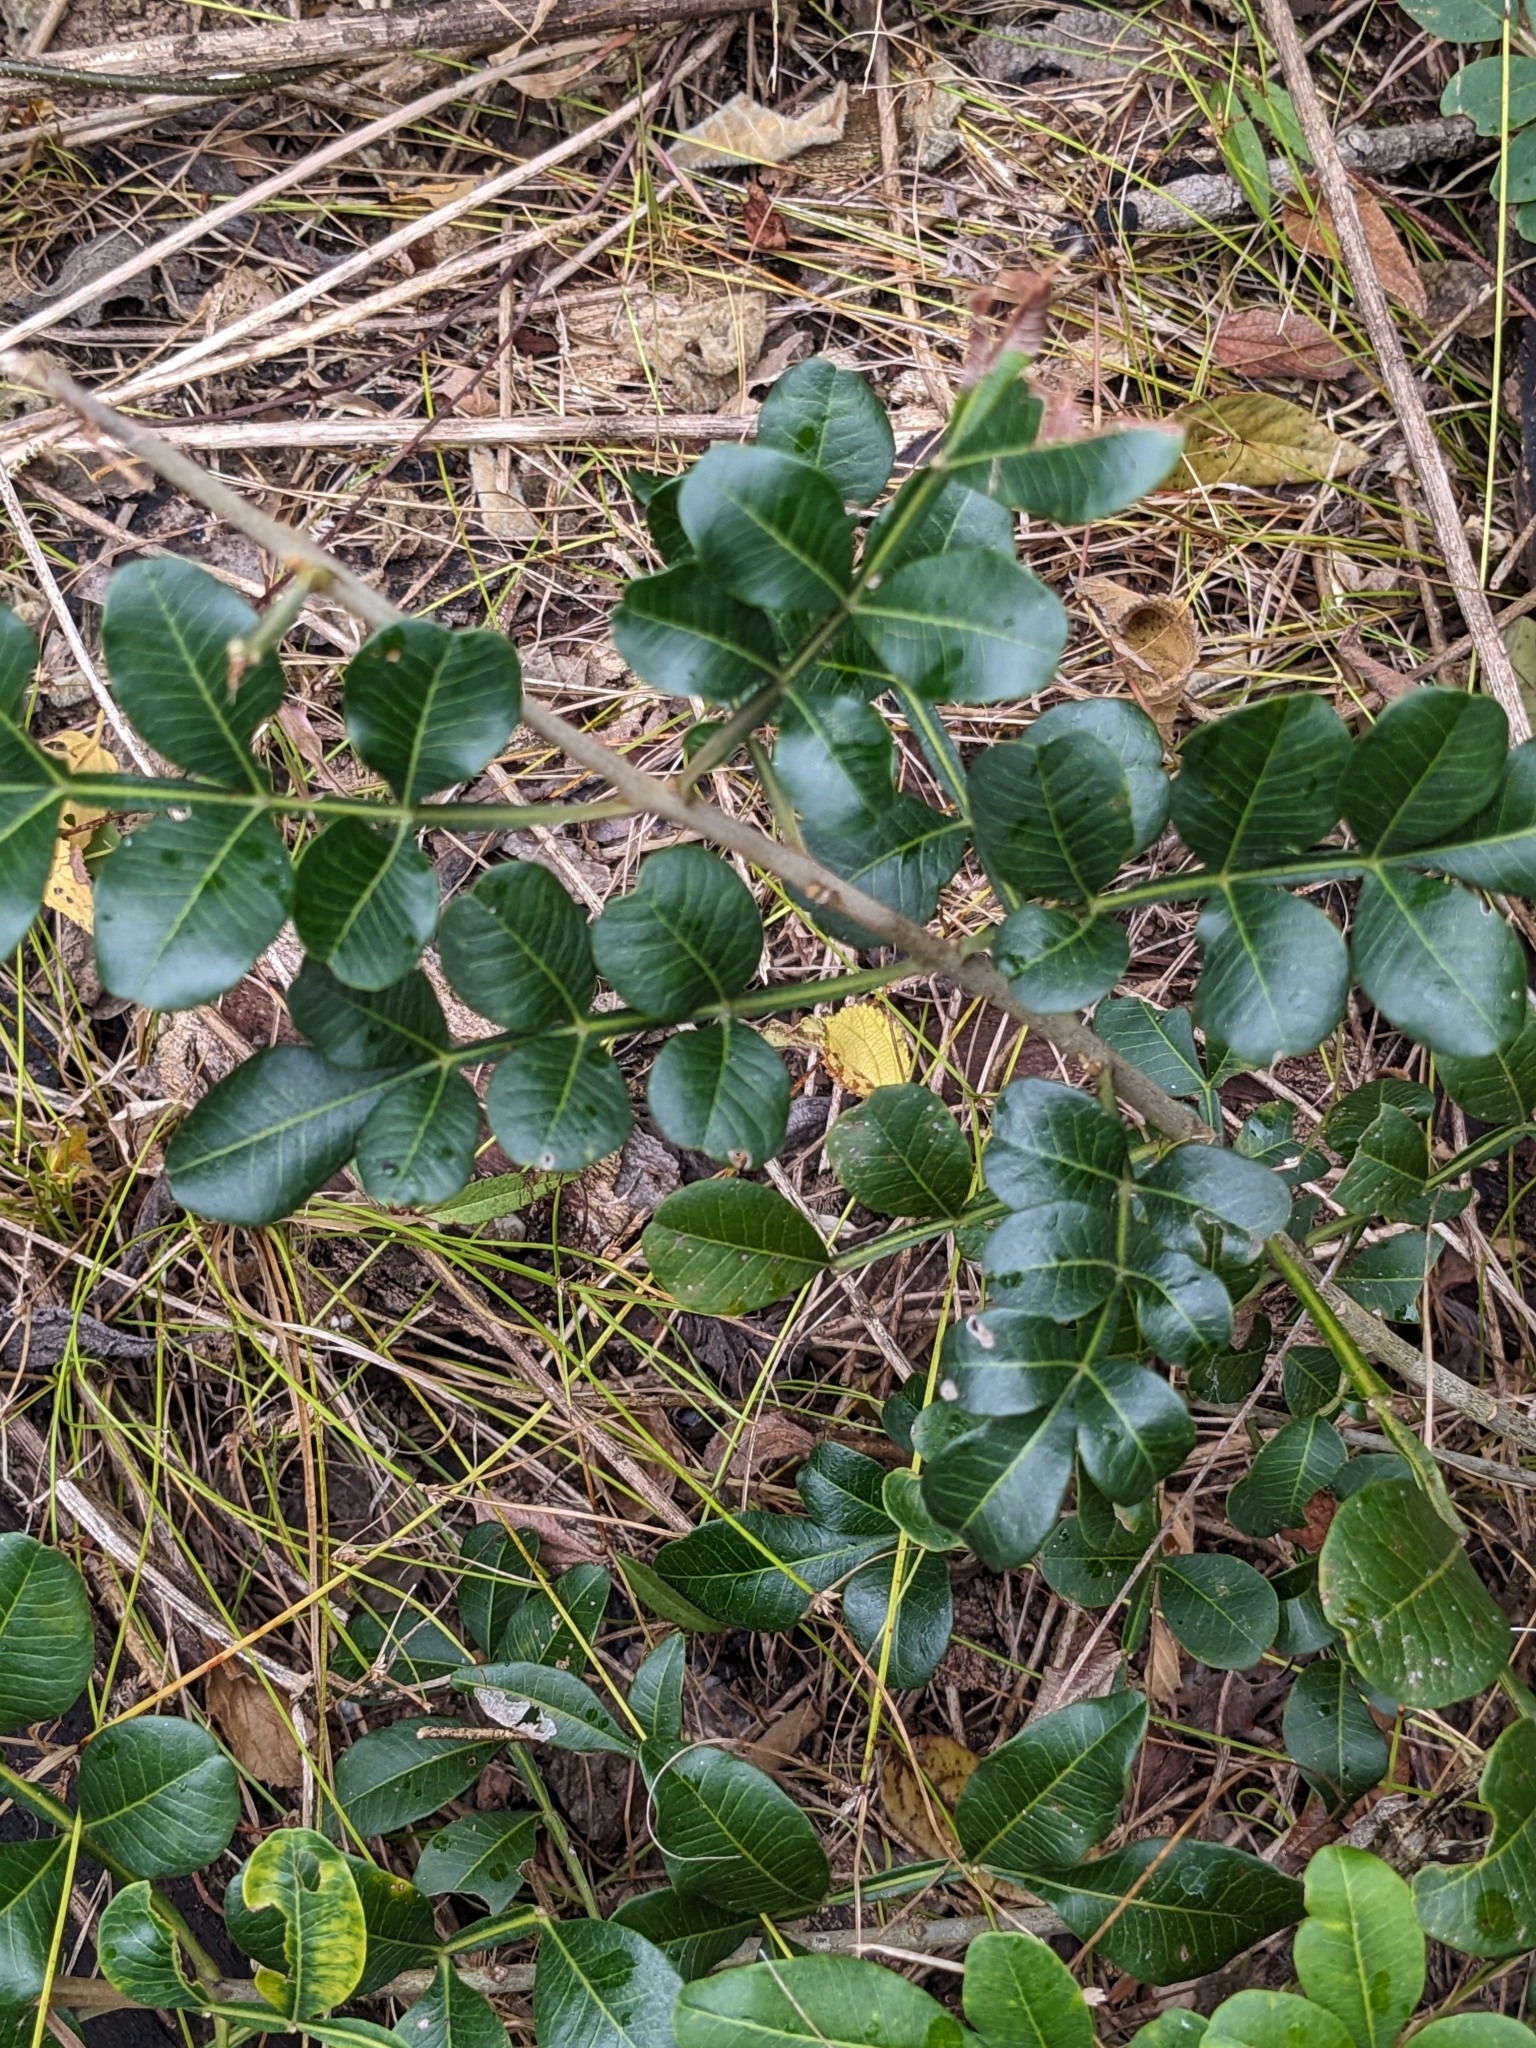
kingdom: Plantae
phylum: Tracheophyta
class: Magnoliopsida
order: Sapindales
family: Rutaceae
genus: Flindersia
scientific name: Flindersia collina
